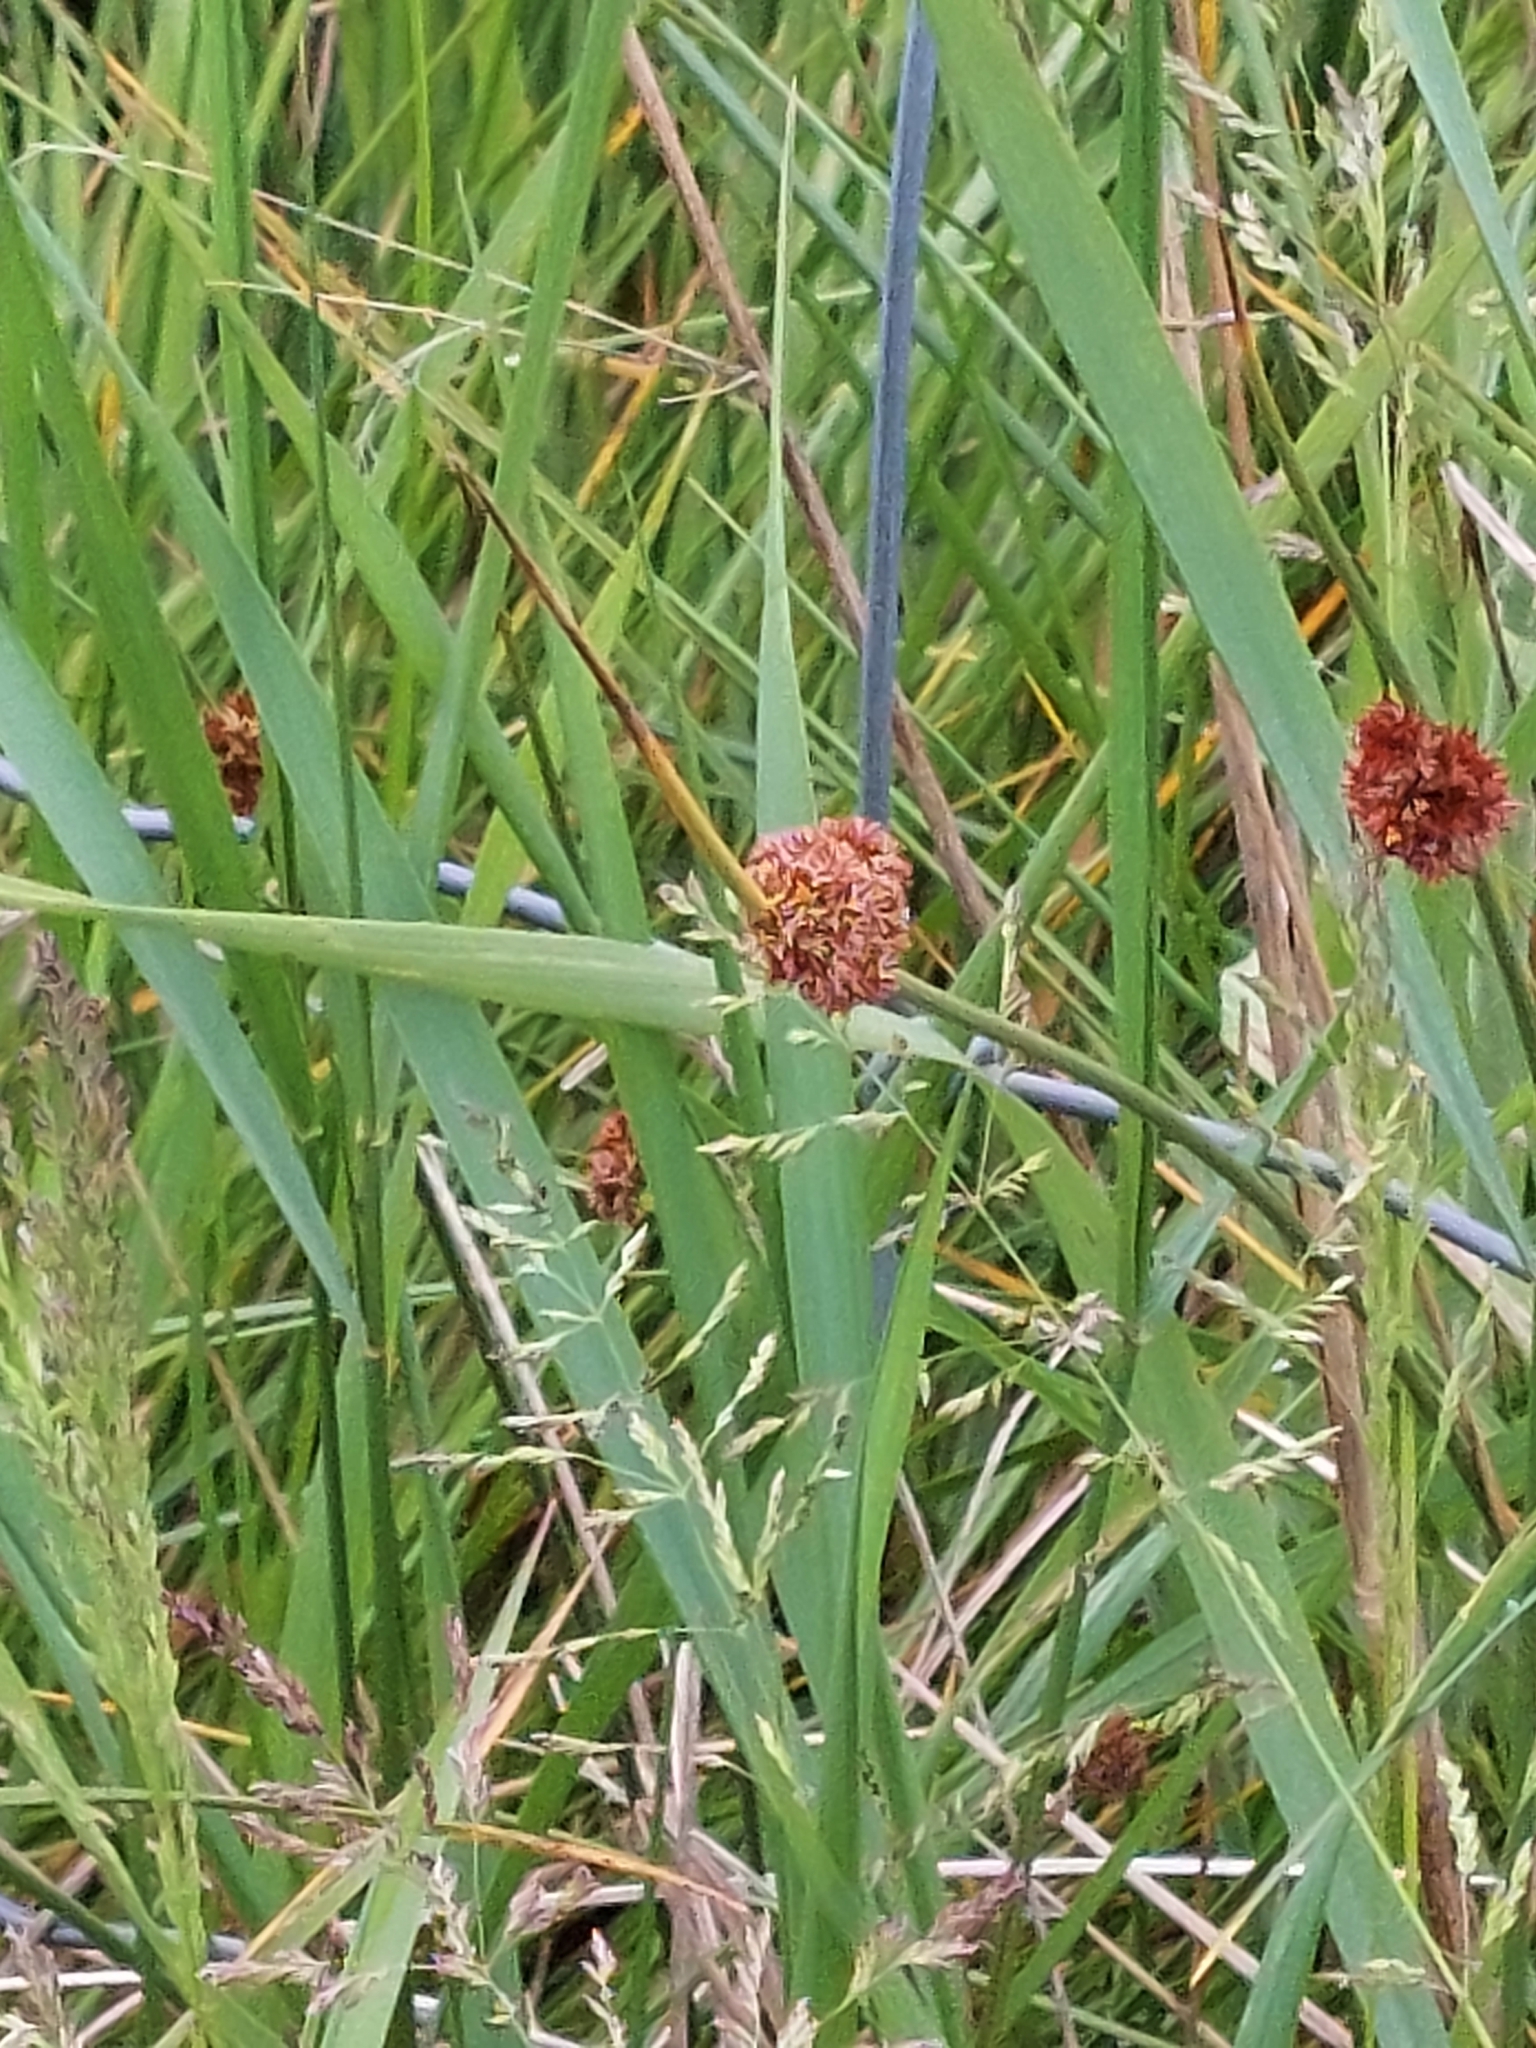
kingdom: Plantae
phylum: Tracheophyta
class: Liliopsida
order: Poales
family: Juncaceae
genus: Juncus
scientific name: Juncus conglomeratus
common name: Compact rush
